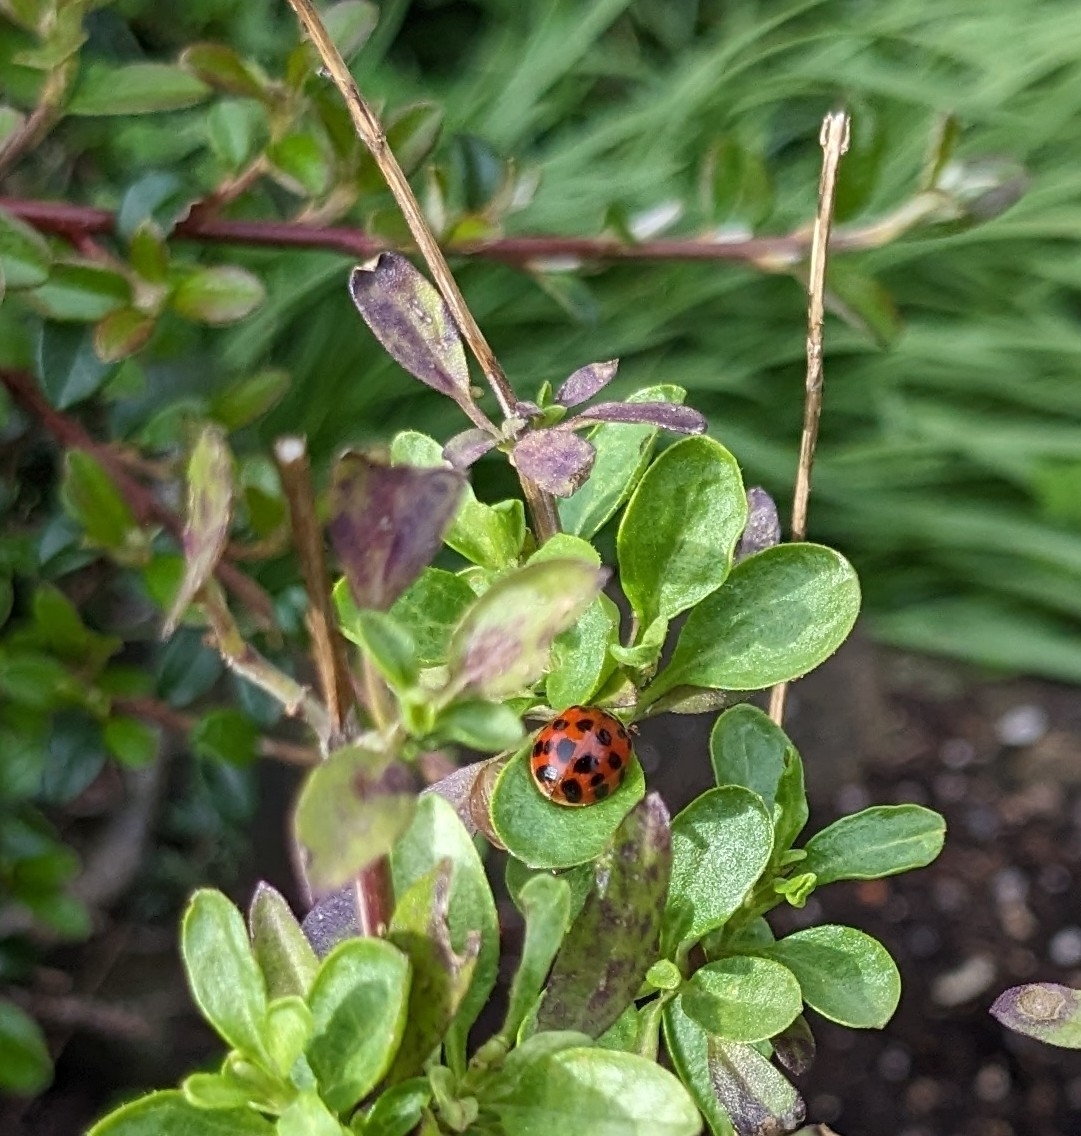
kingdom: Animalia
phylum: Arthropoda
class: Insecta
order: Coleoptera
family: Coccinellidae
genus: Harmonia
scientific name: Harmonia axyridis
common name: Harlequin ladybird
